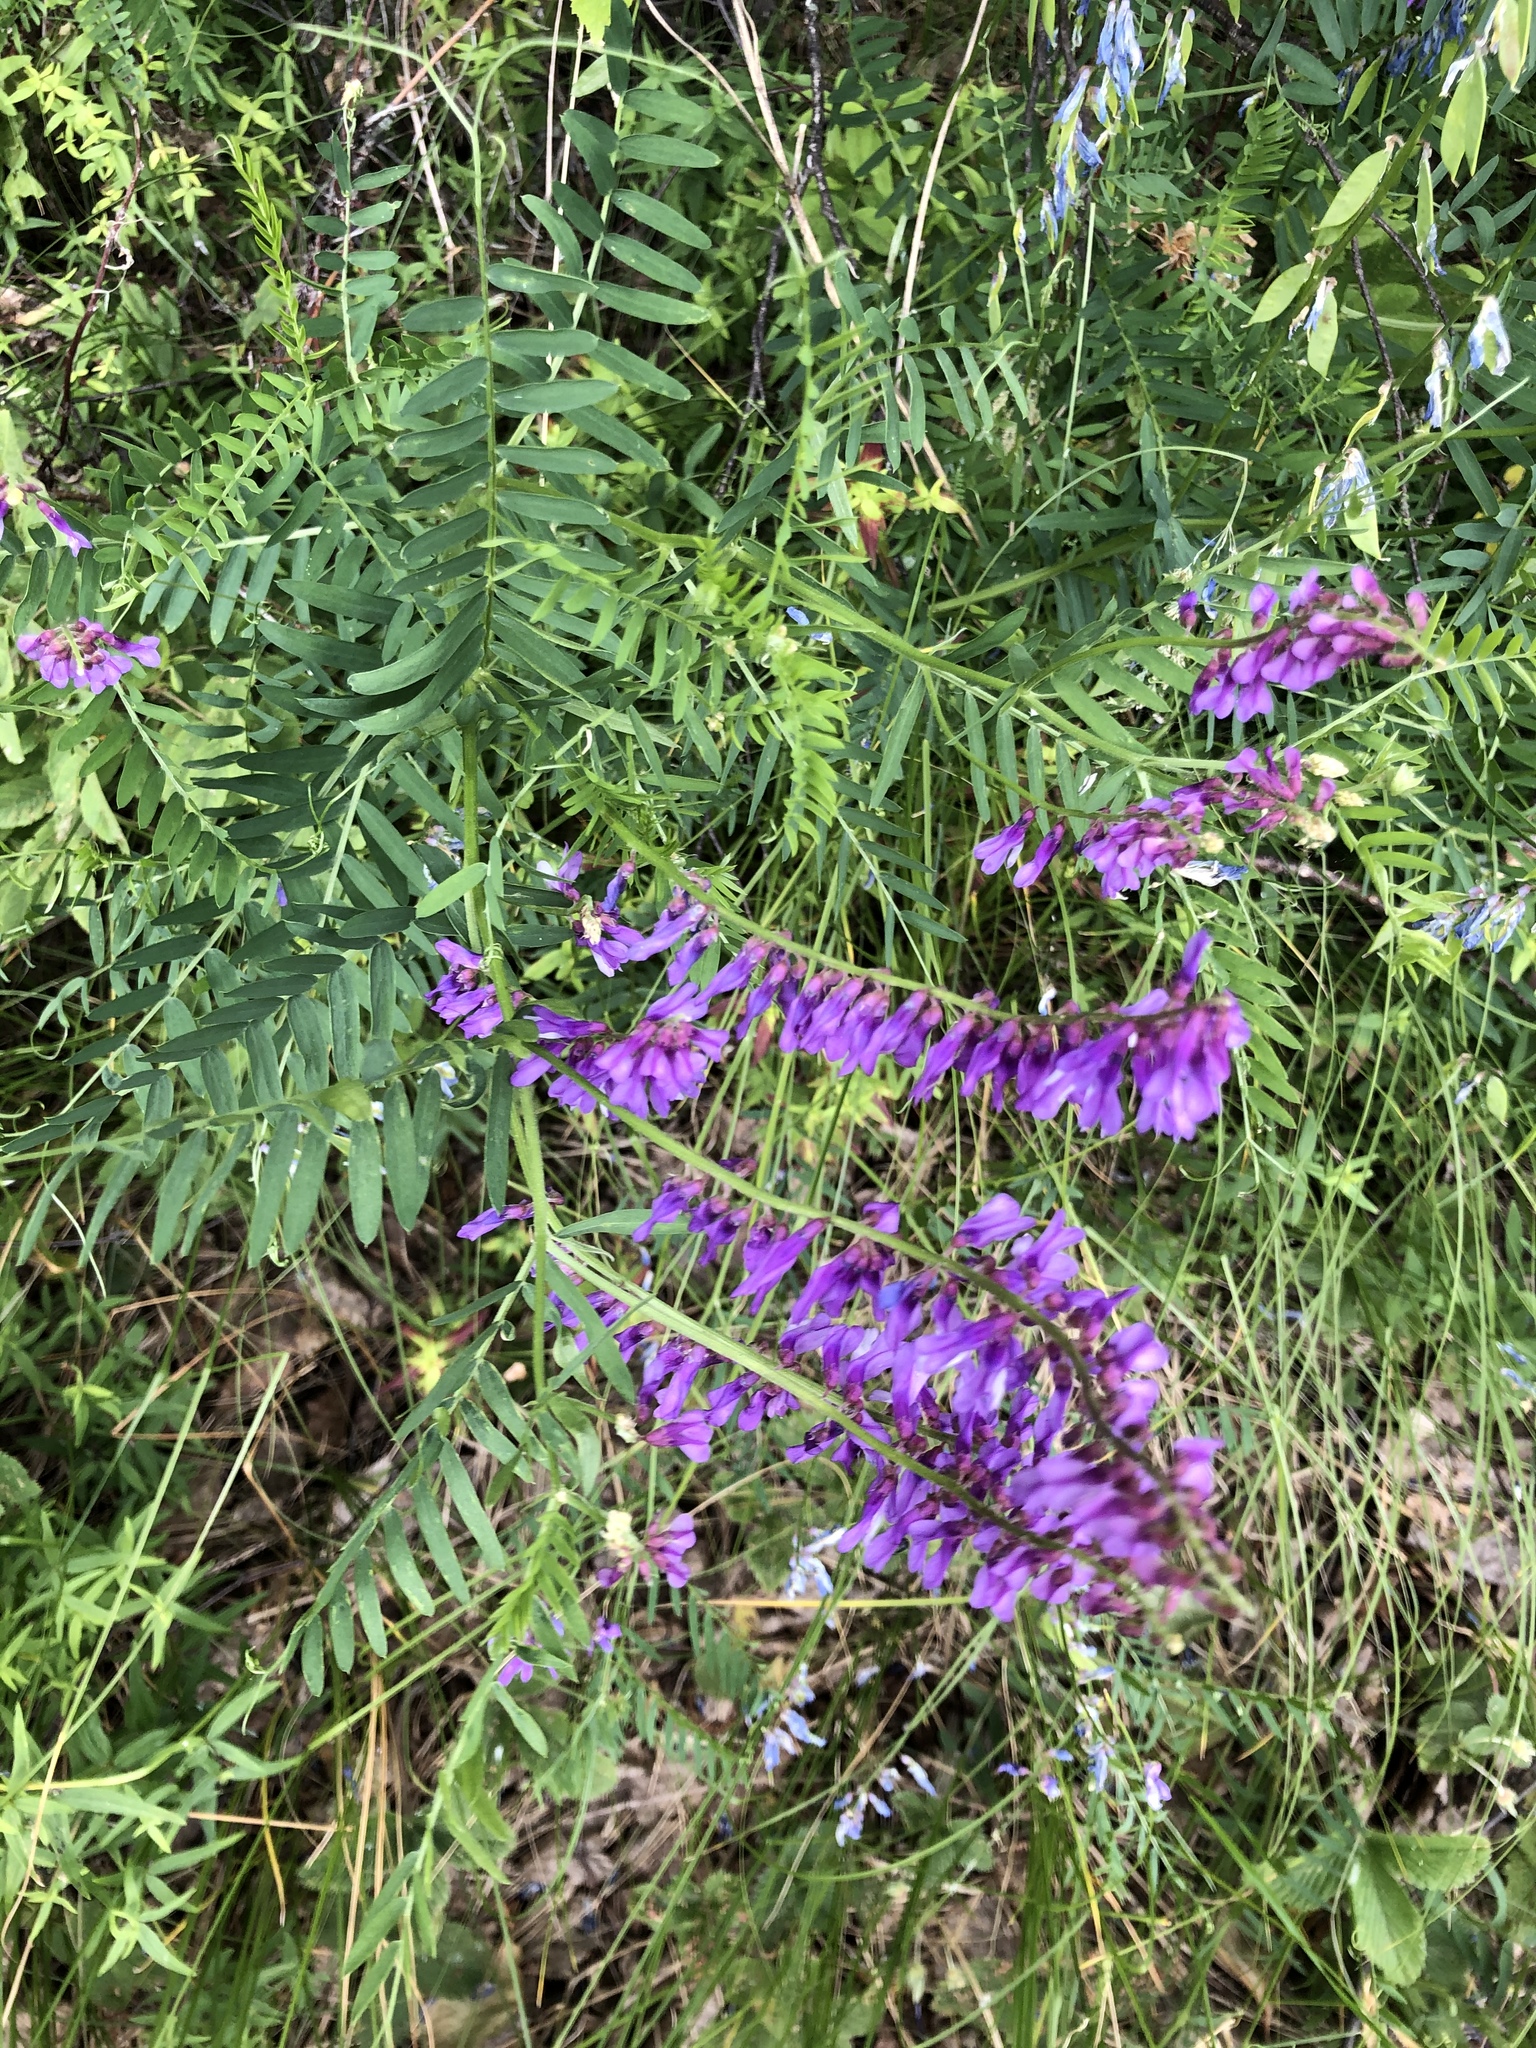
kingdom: Plantae
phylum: Tracheophyta
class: Magnoliopsida
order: Fabales
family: Fabaceae
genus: Vicia
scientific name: Vicia tenuifolia
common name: Fine-leaved vetch
